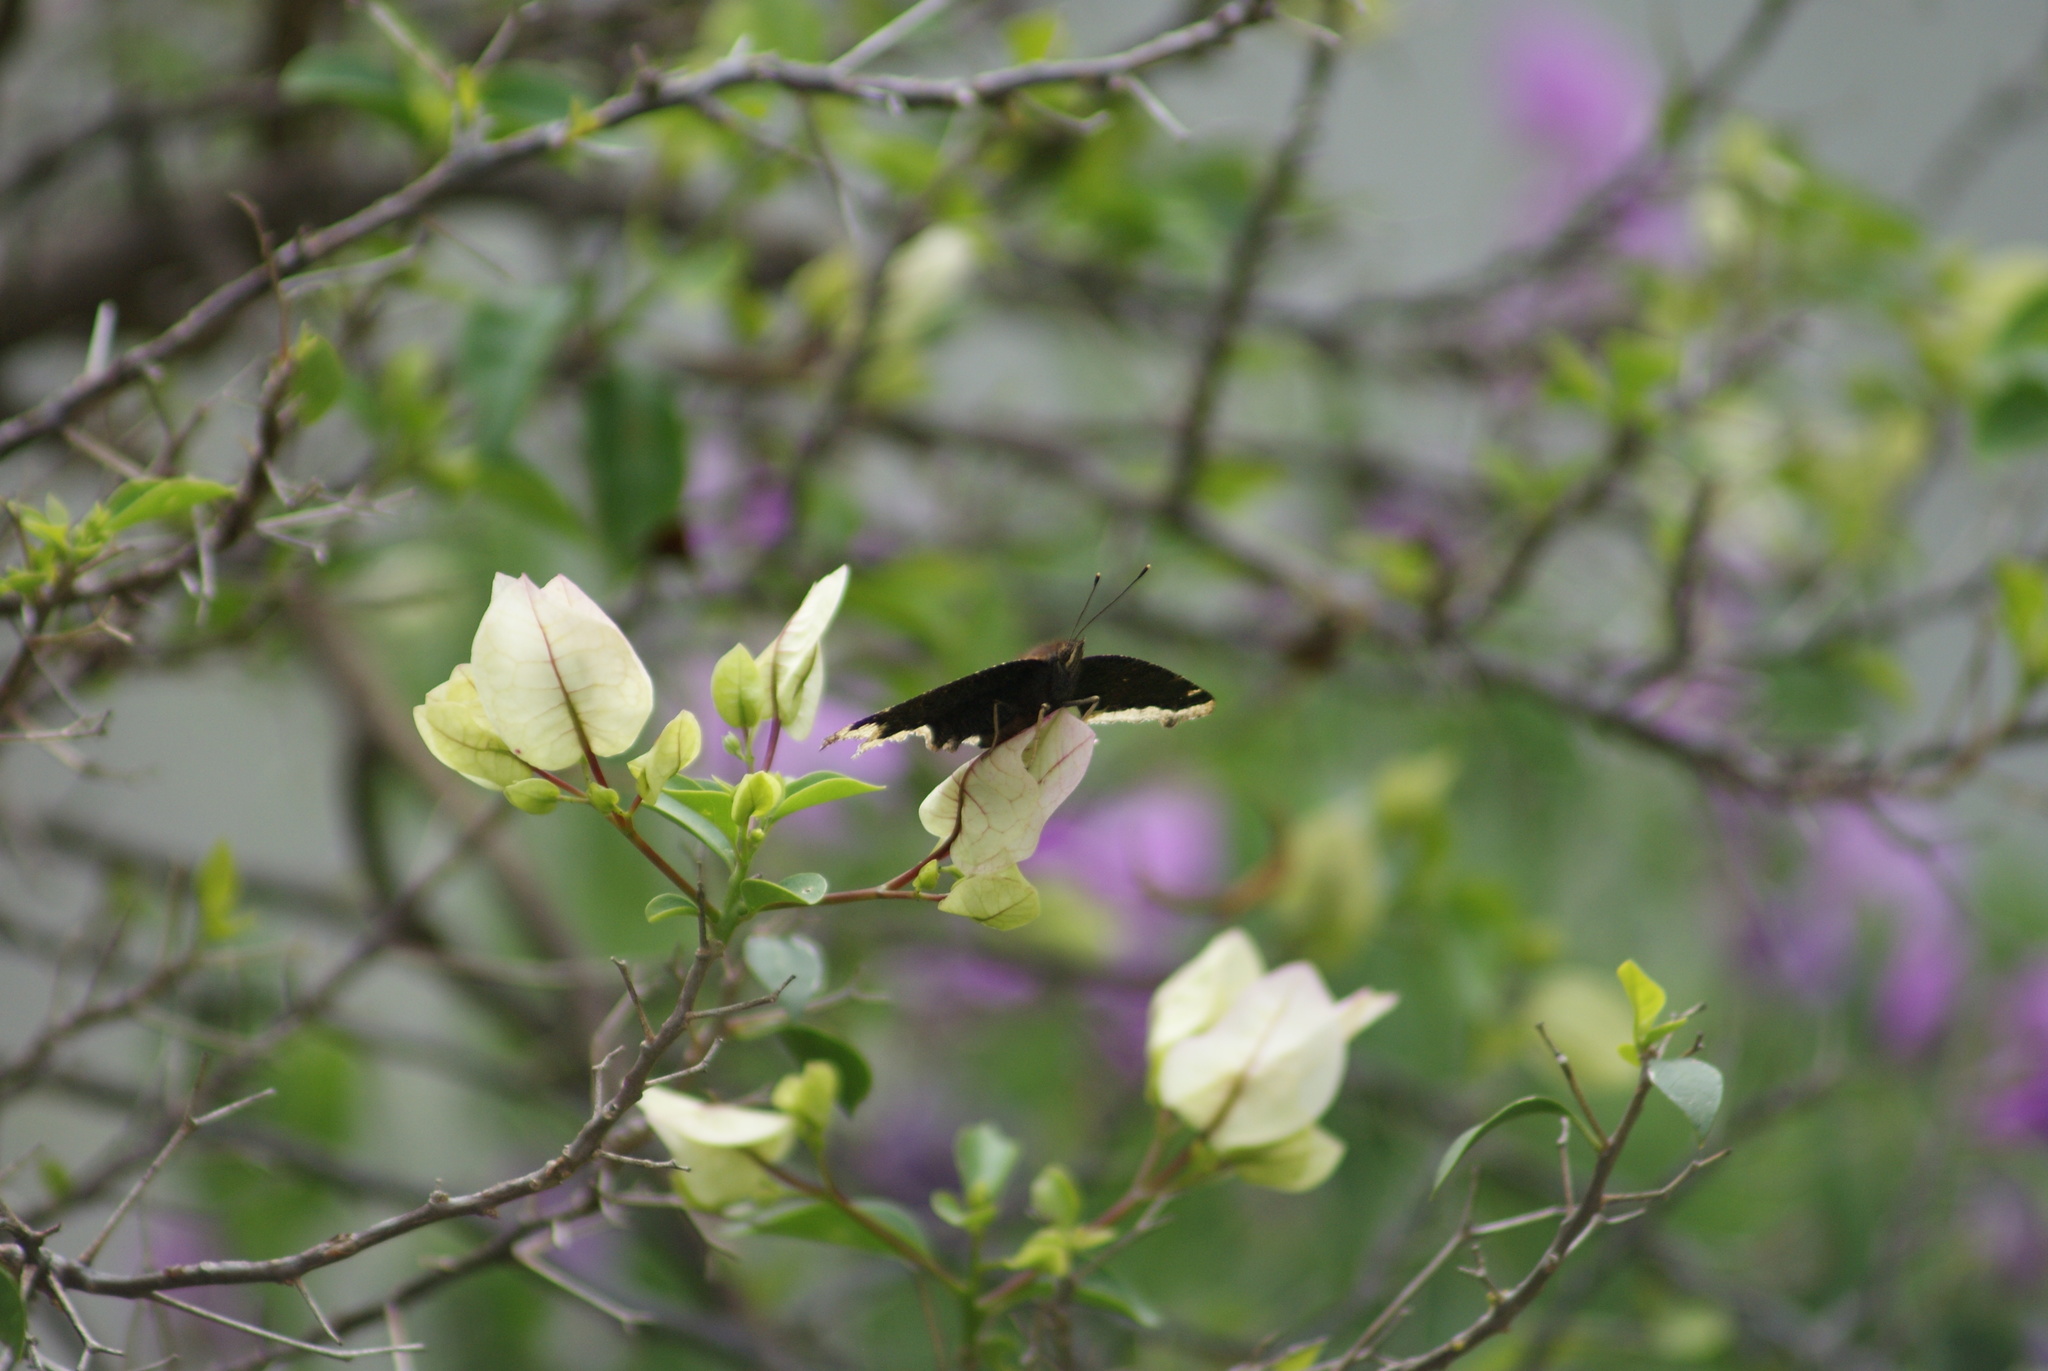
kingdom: Animalia
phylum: Arthropoda
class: Insecta
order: Lepidoptera
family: Nymphalidae
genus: Nymphalis
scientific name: Nymphalis antiopa
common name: Camberwell beauty
